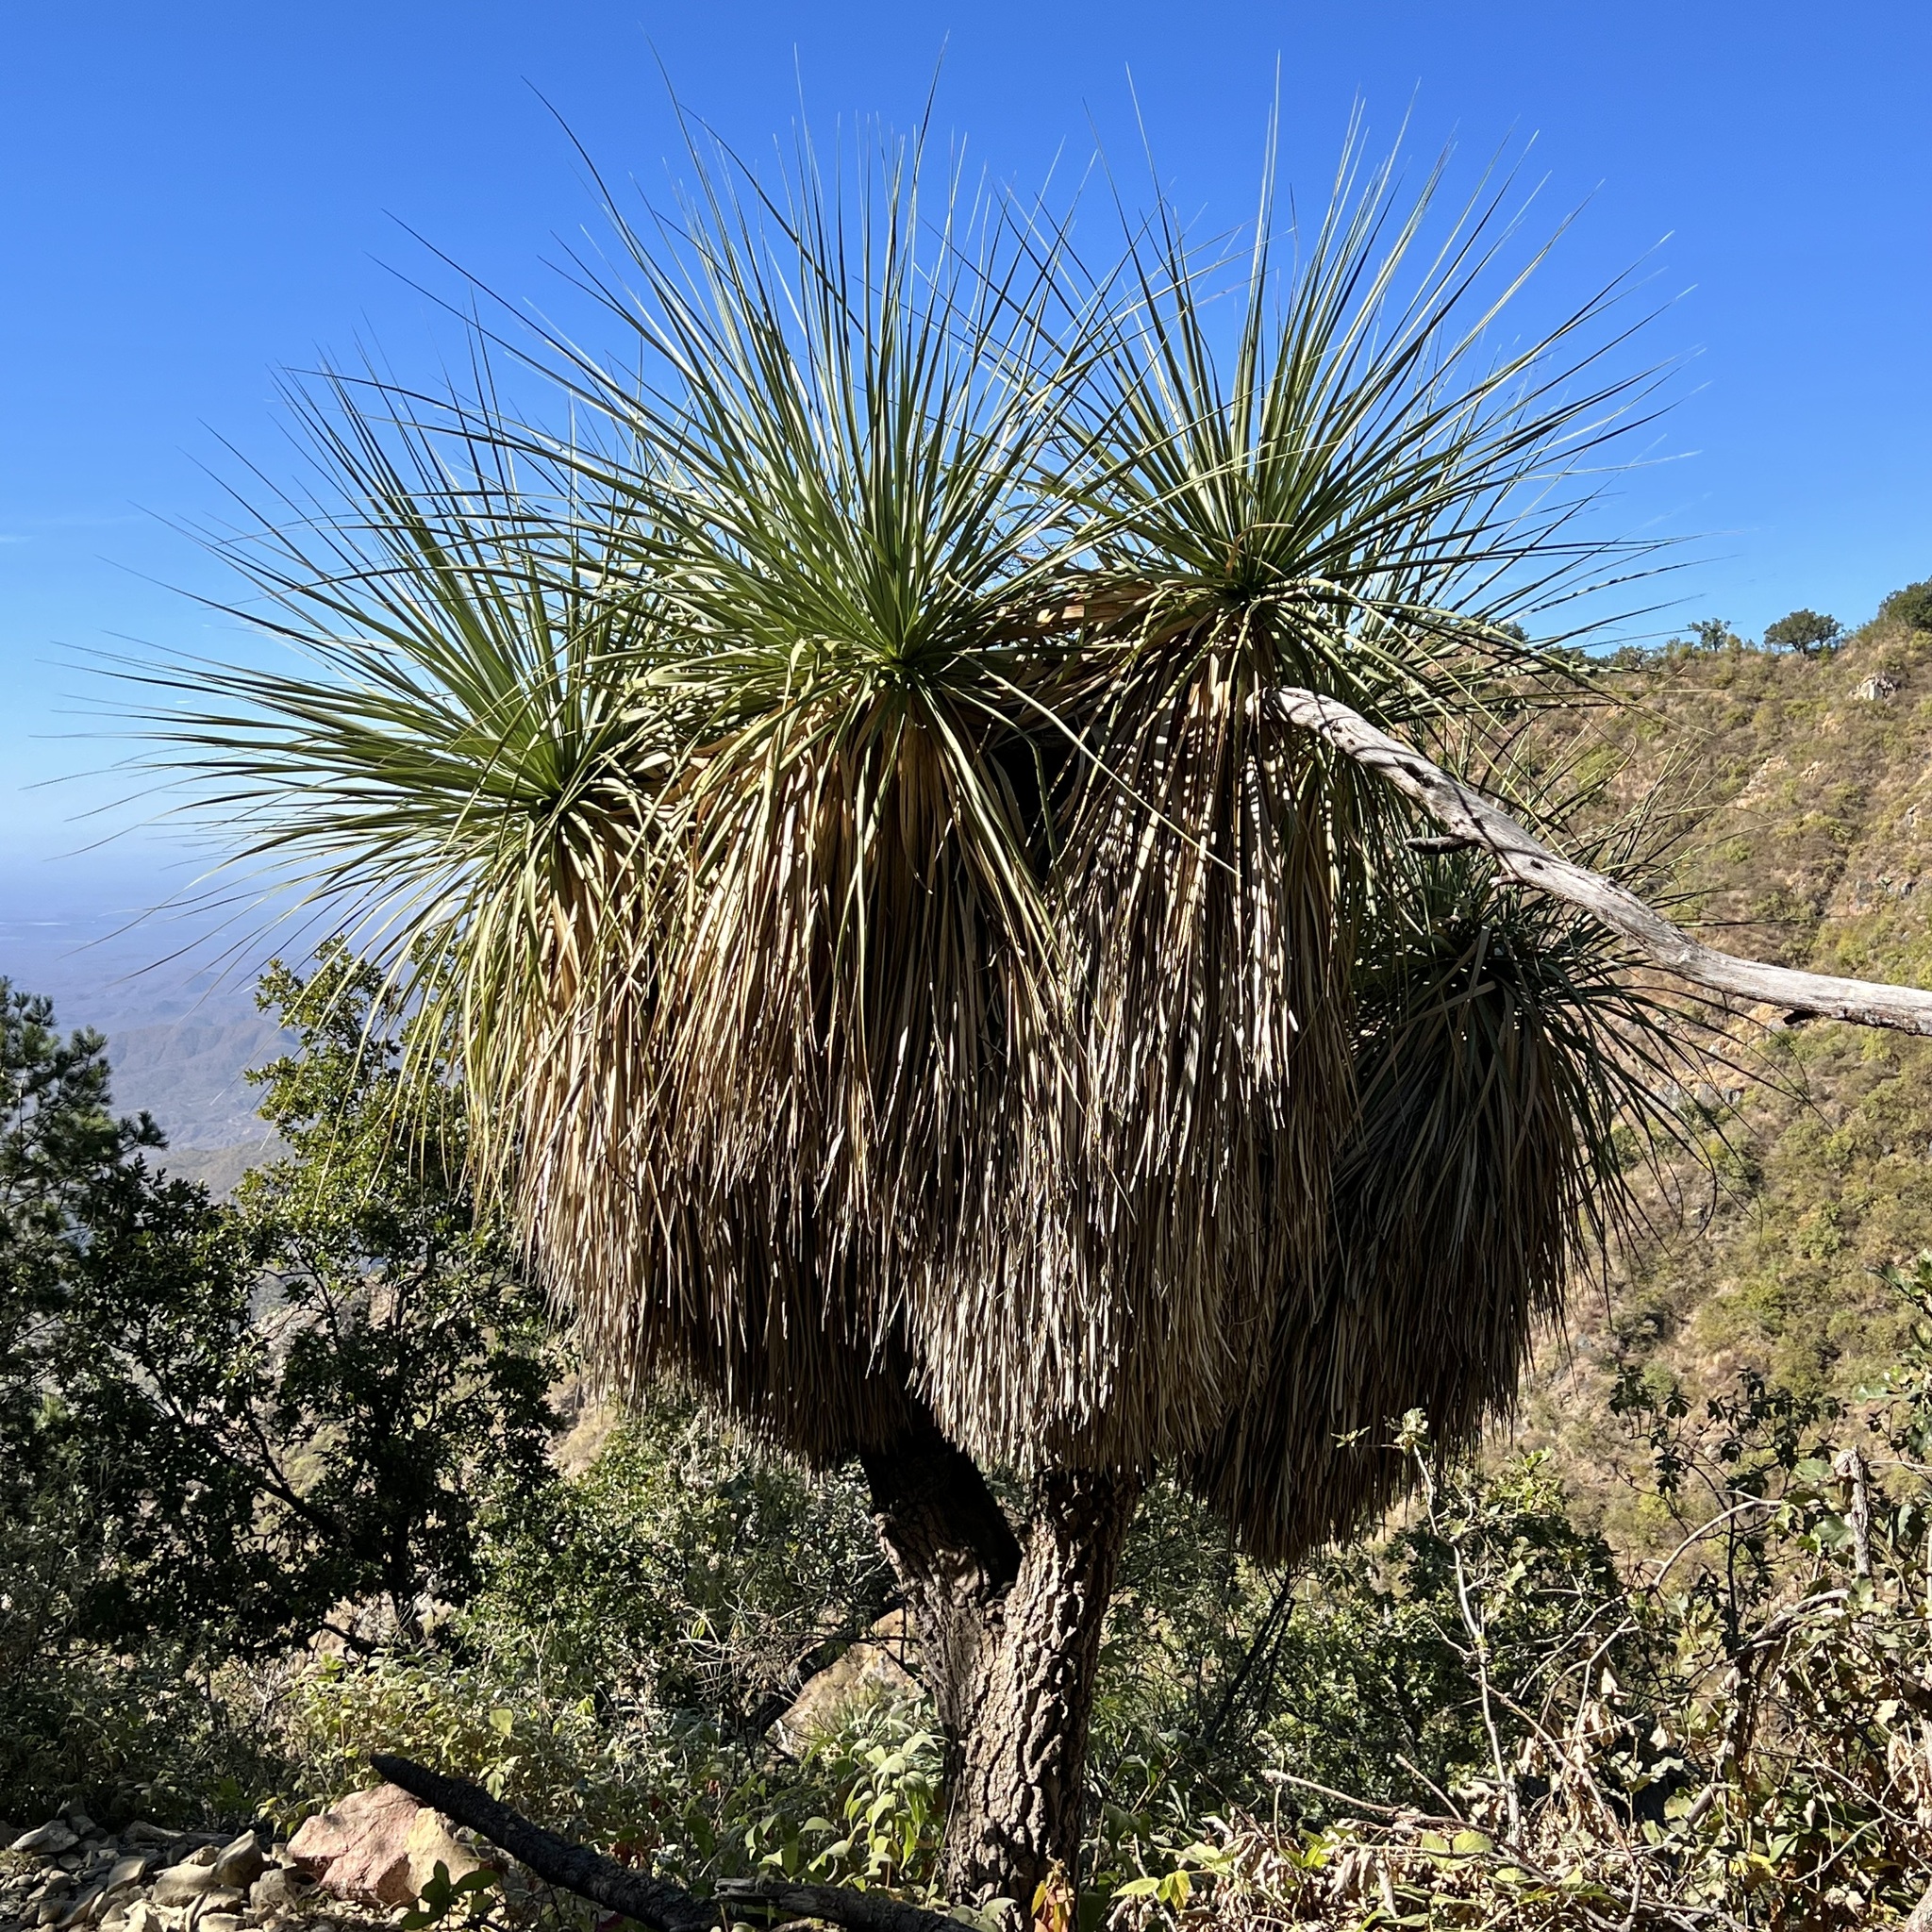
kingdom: Plantae
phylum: Tracheophyta
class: Liliopsida
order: Asparagales
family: Asparagaceae
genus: Nolina
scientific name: Nolina beldingii
